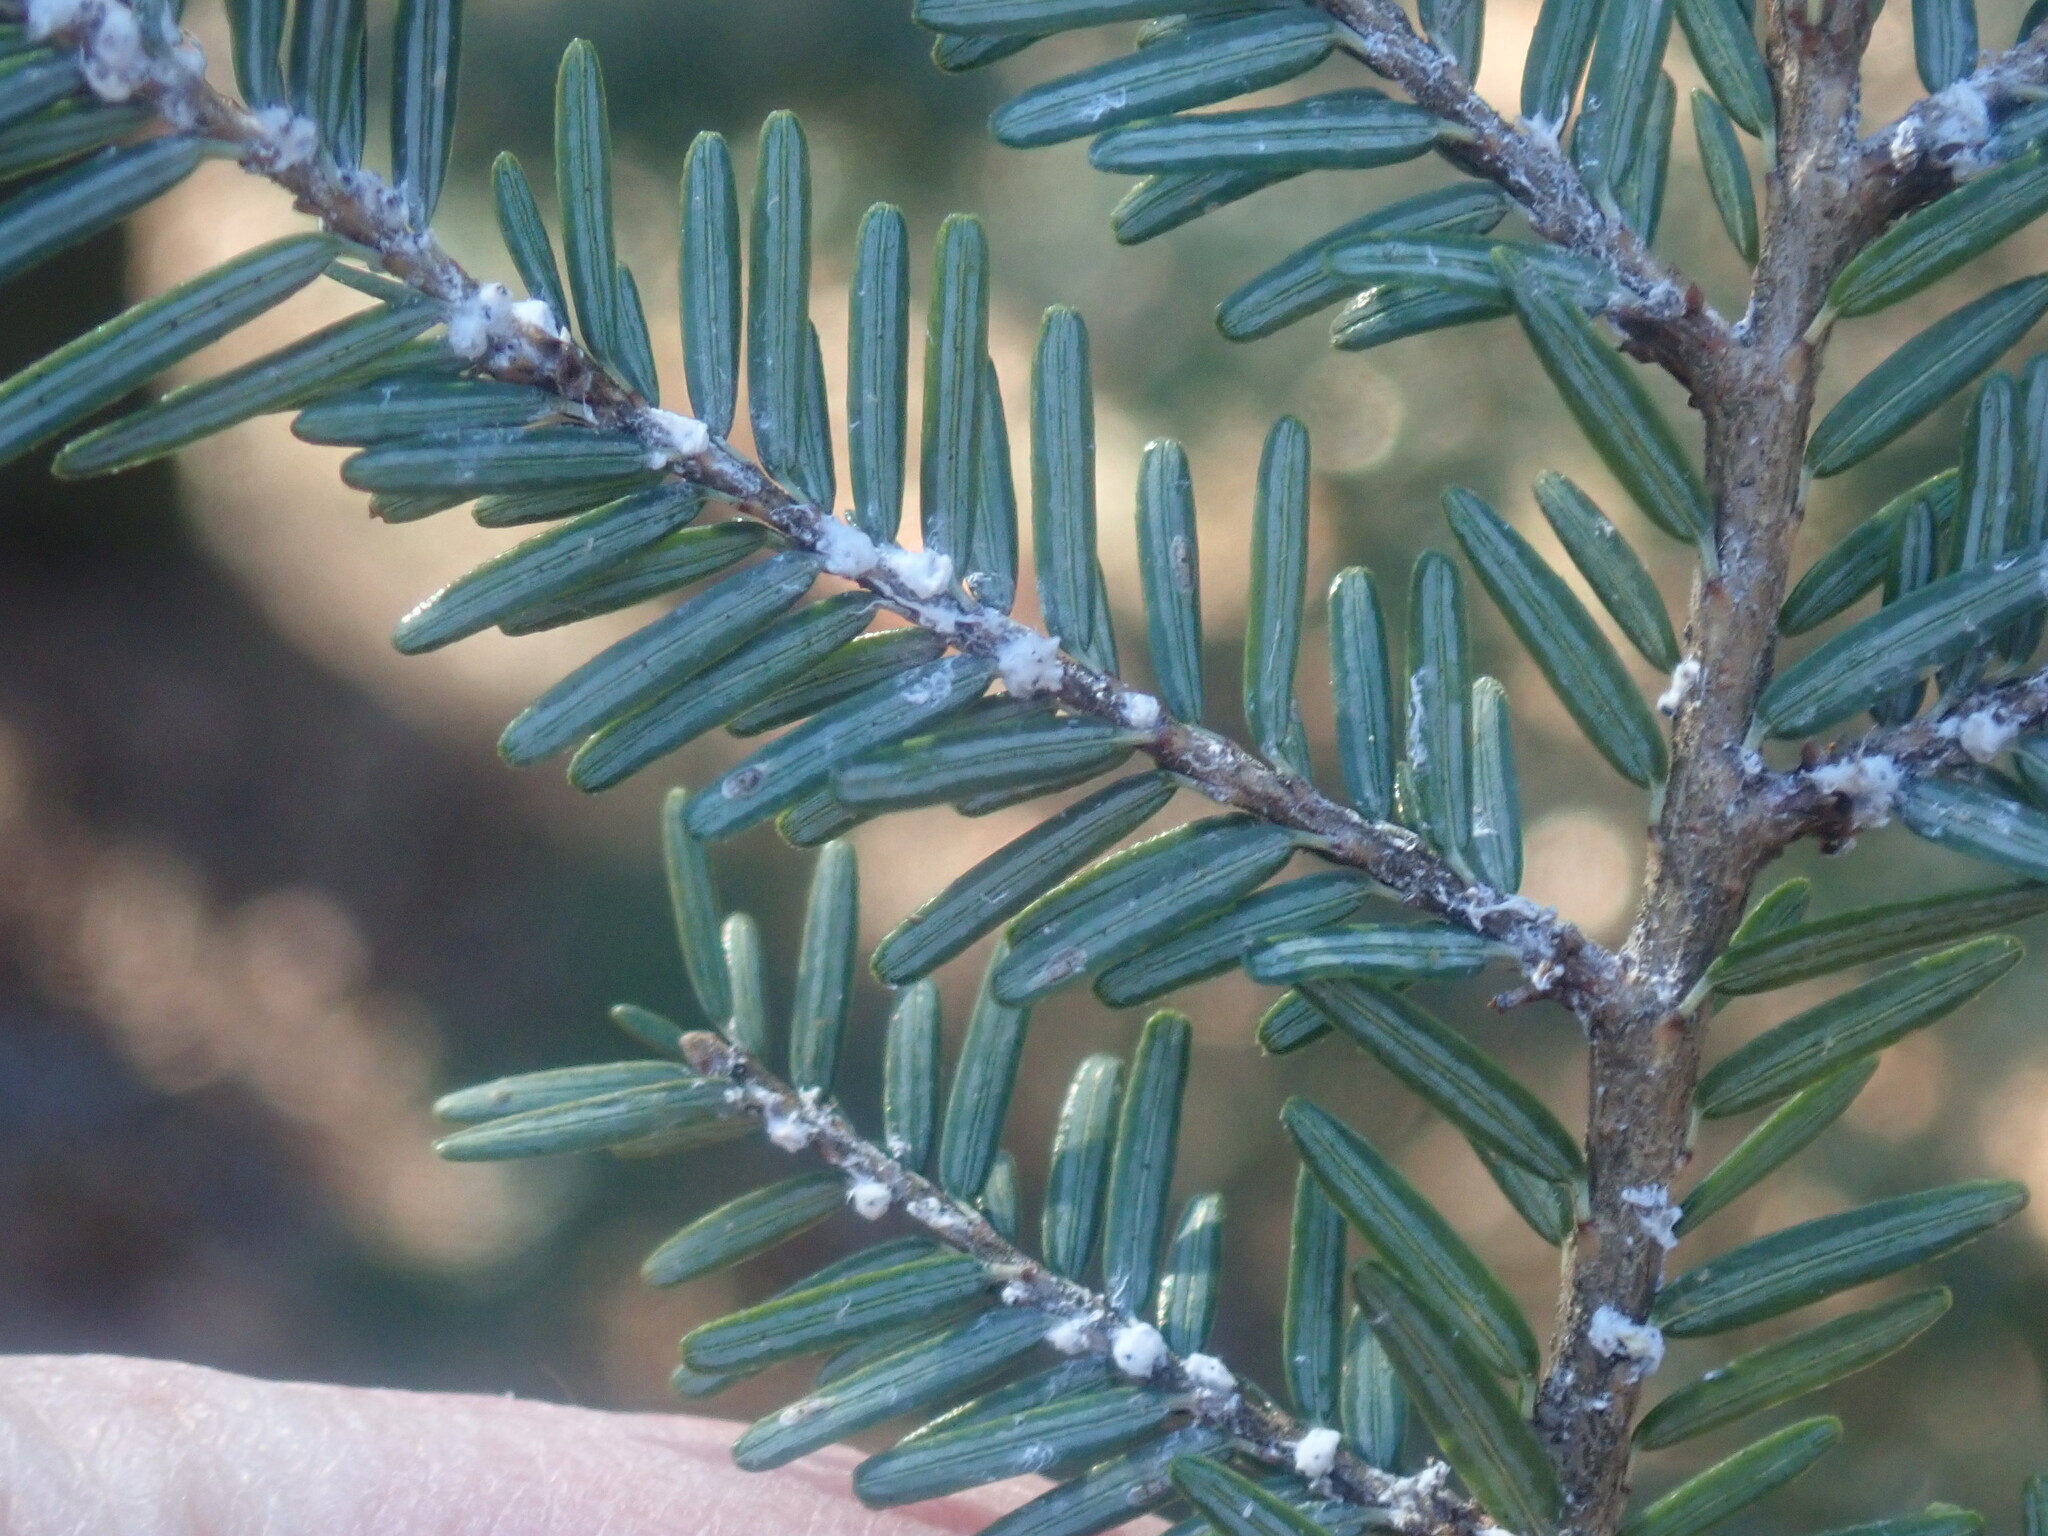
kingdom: Animalia
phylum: Arthropoda
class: Insecta
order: Hemiptera
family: Adelgidae
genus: Adelges
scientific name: Adelges tsugae
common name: Hemlock woolly adelgid
